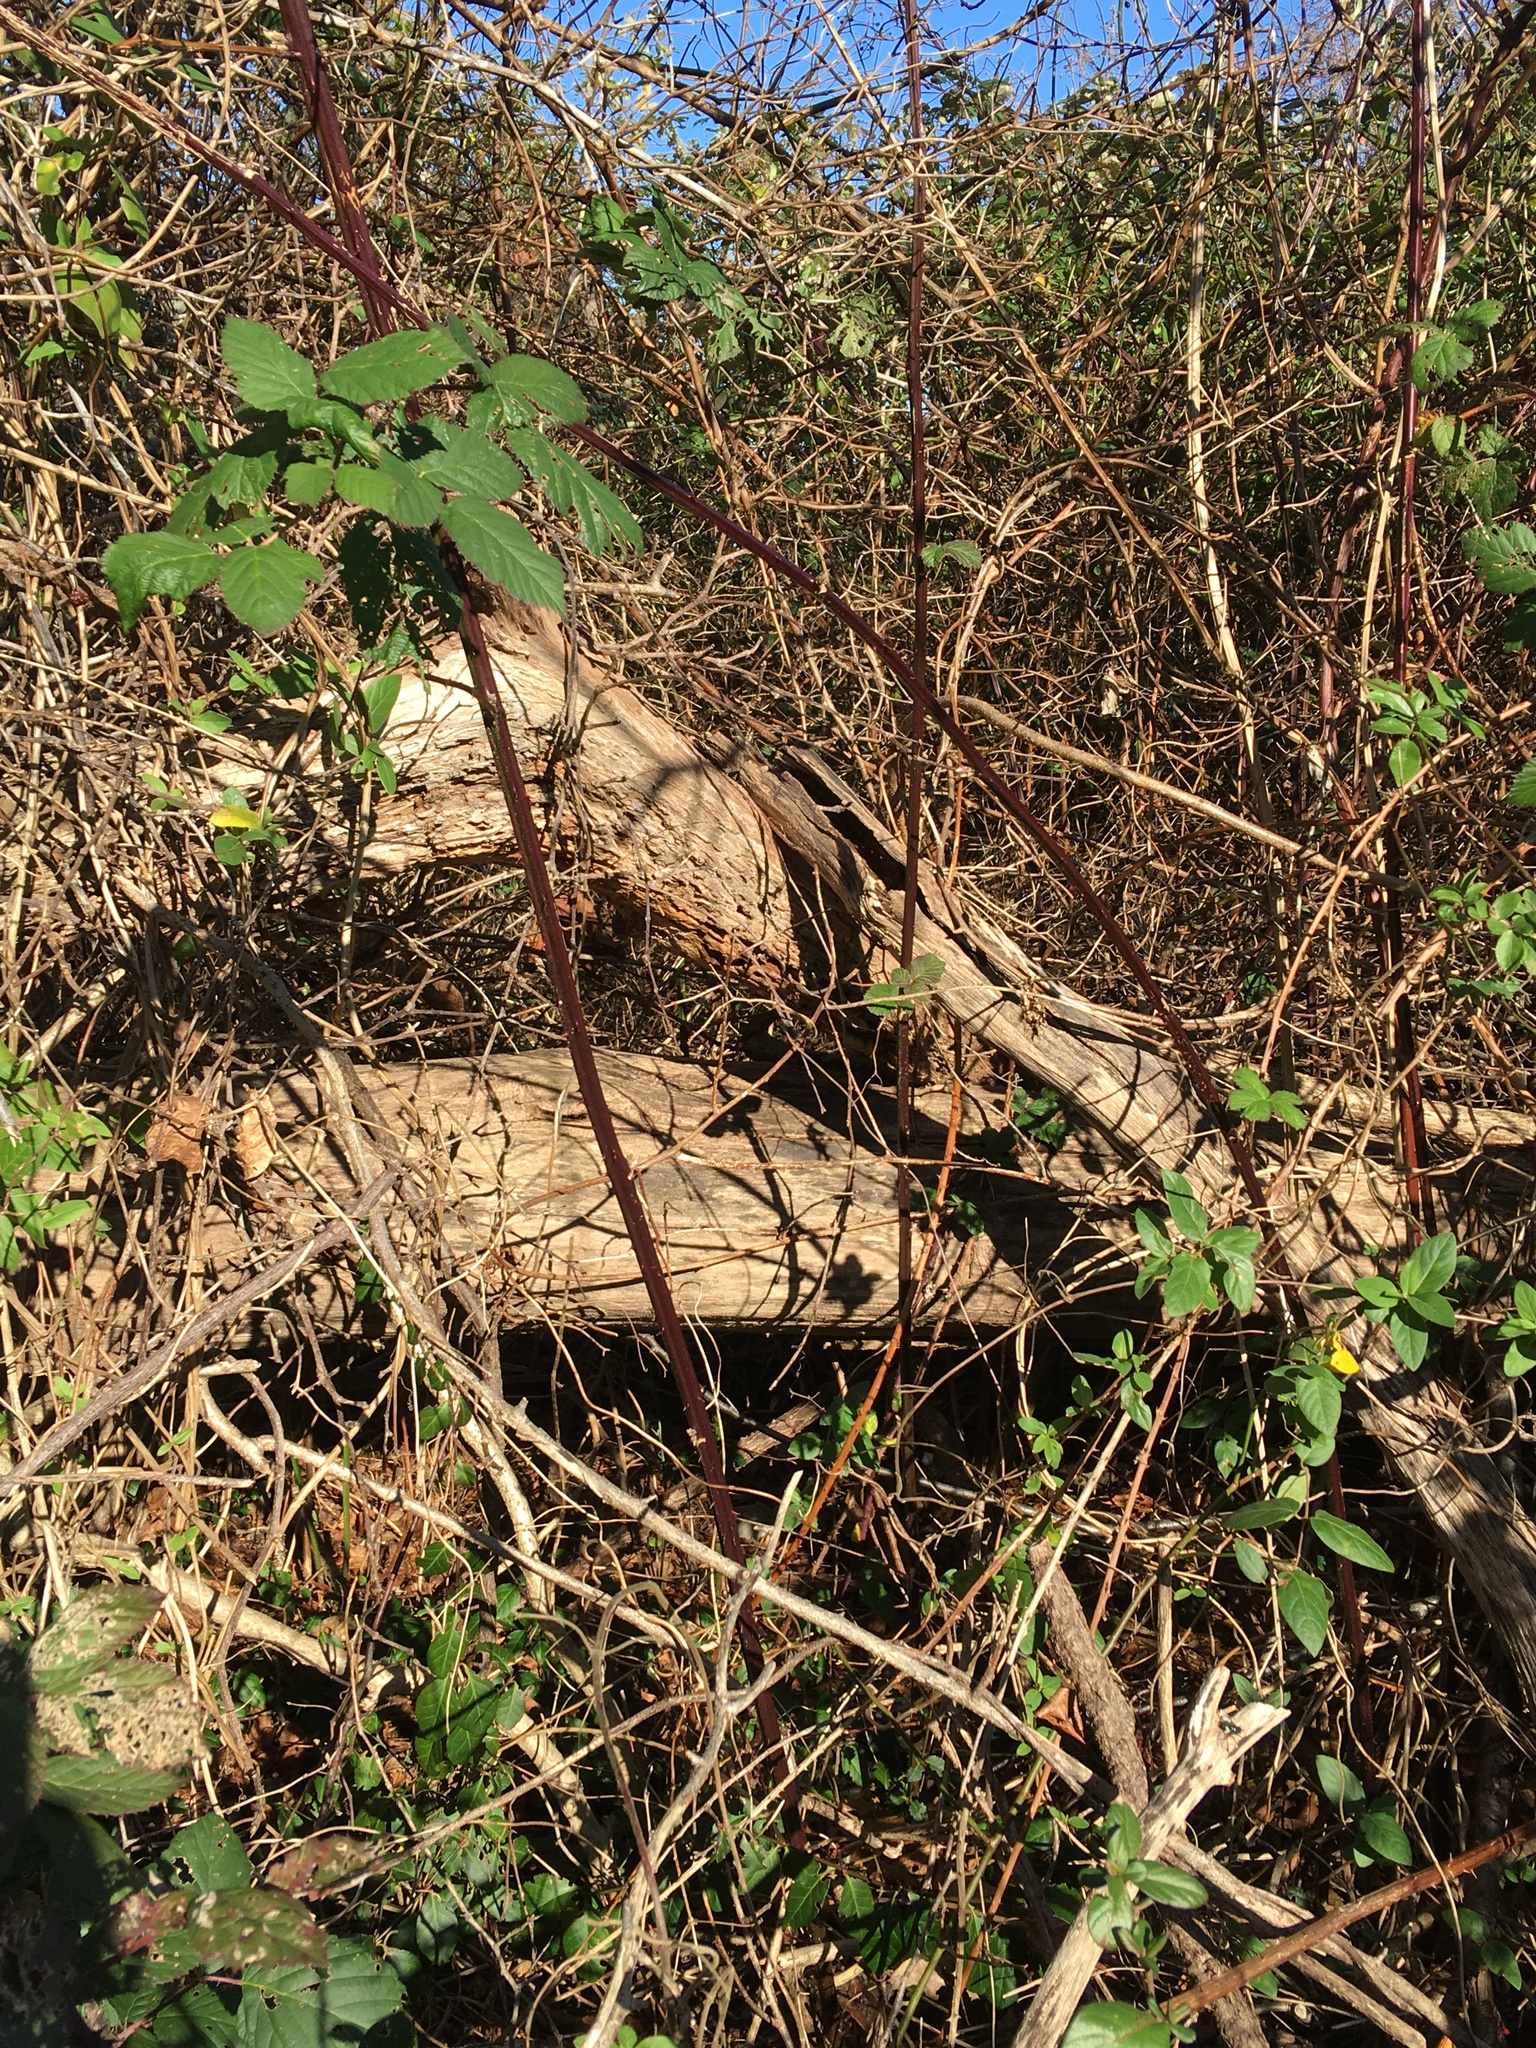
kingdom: Plantae
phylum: Tracheophyta
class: Magnoliopsida
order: Rosales
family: Rosaceae
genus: Rubus
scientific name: Rubus bifrons
